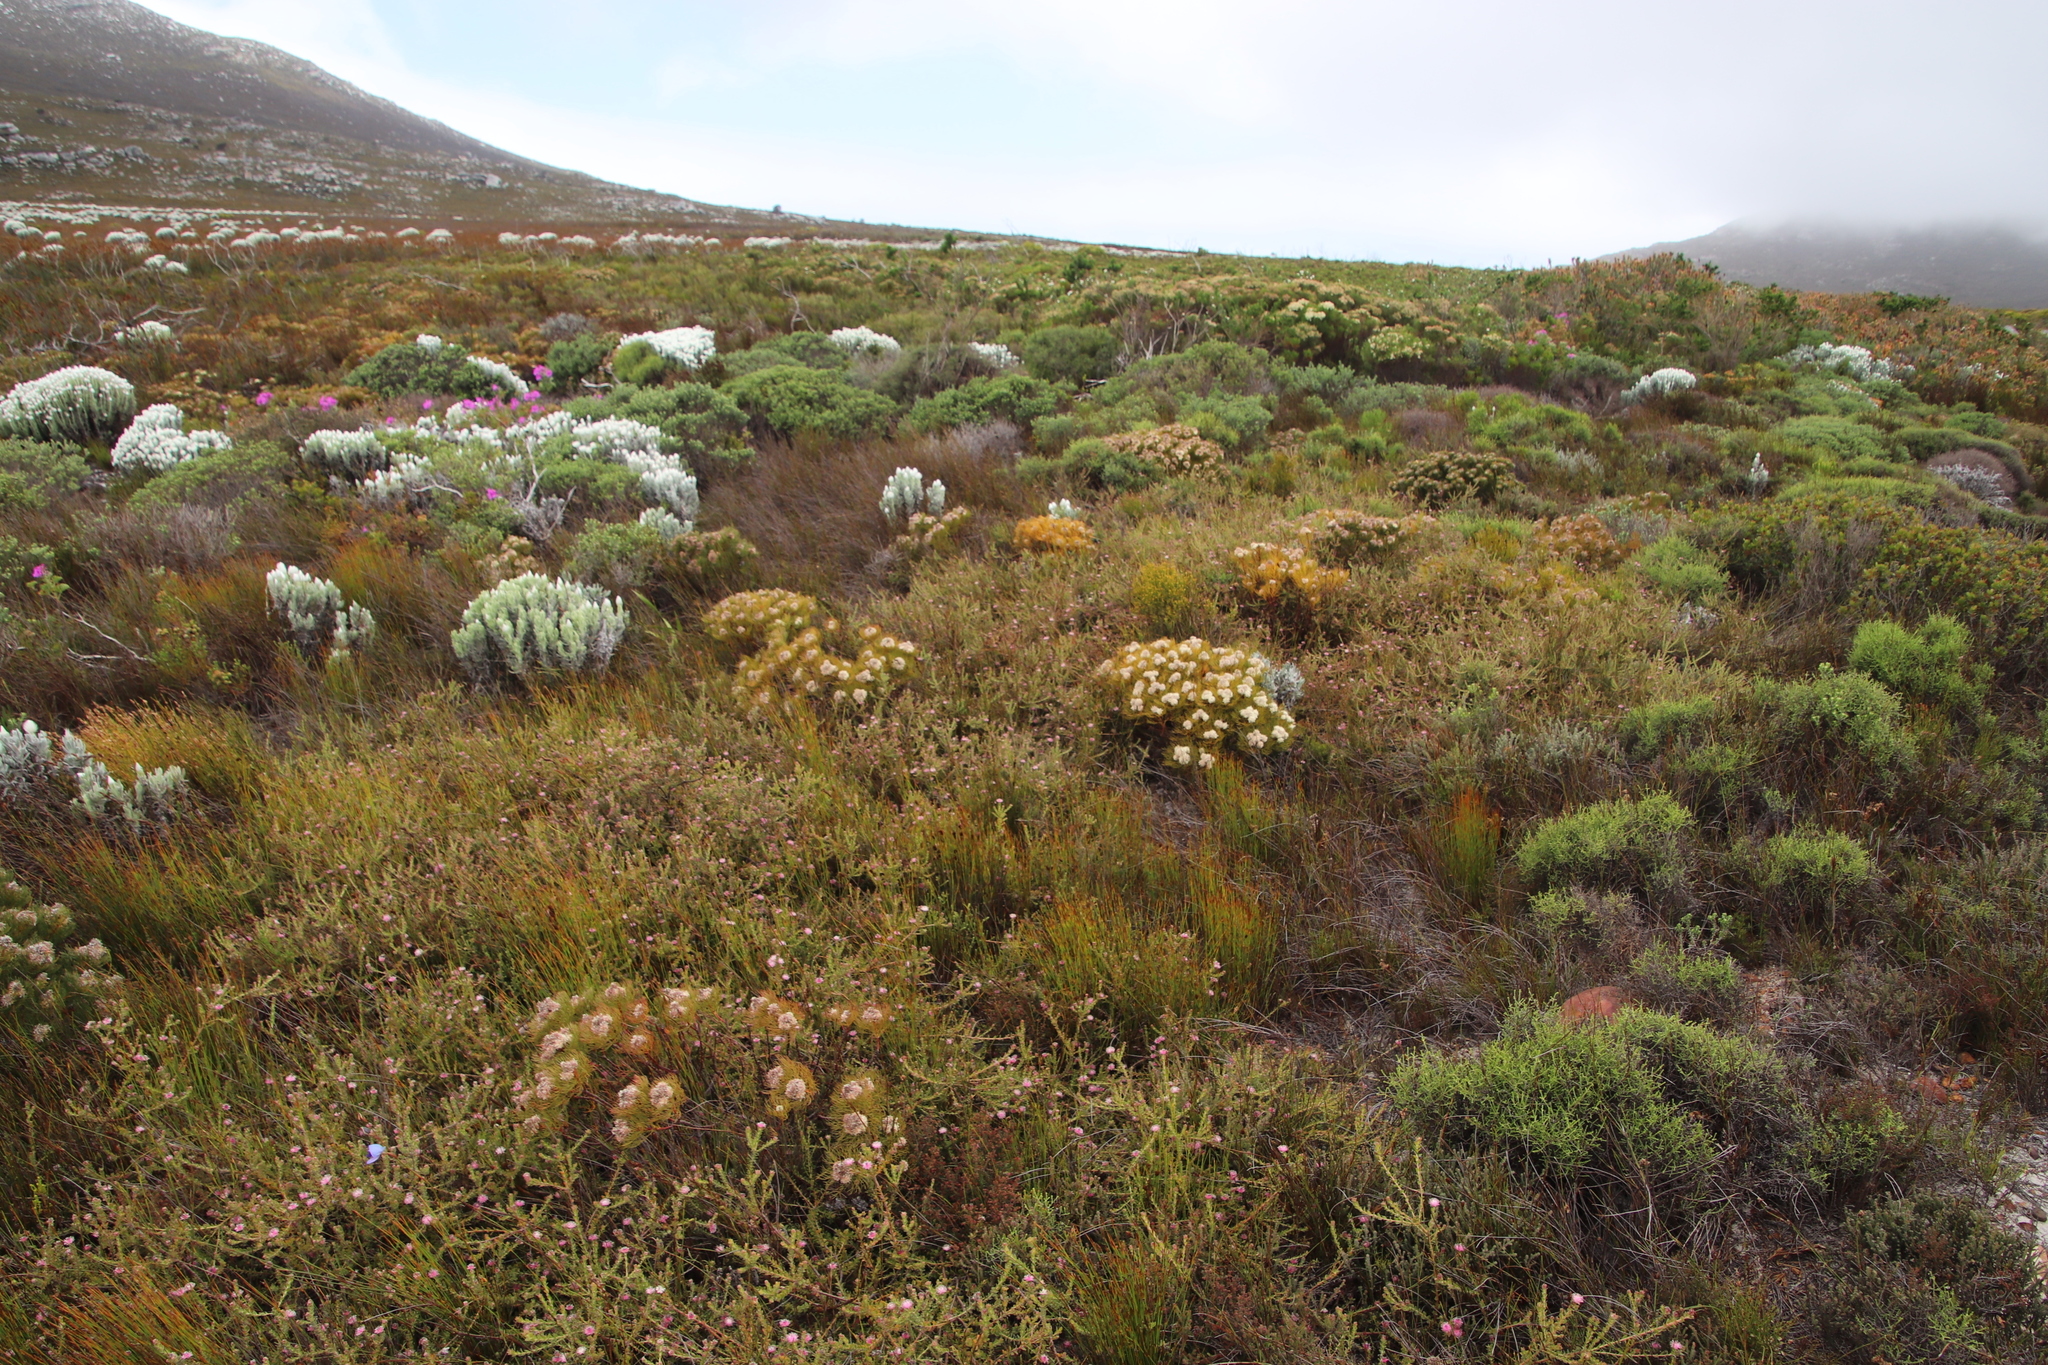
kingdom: Plantae
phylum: Tracheophyta
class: Magnoliopsida
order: Proteales
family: Proteaceae
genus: Serruria
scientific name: Serruria glomerata
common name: Cluster spiderhead
